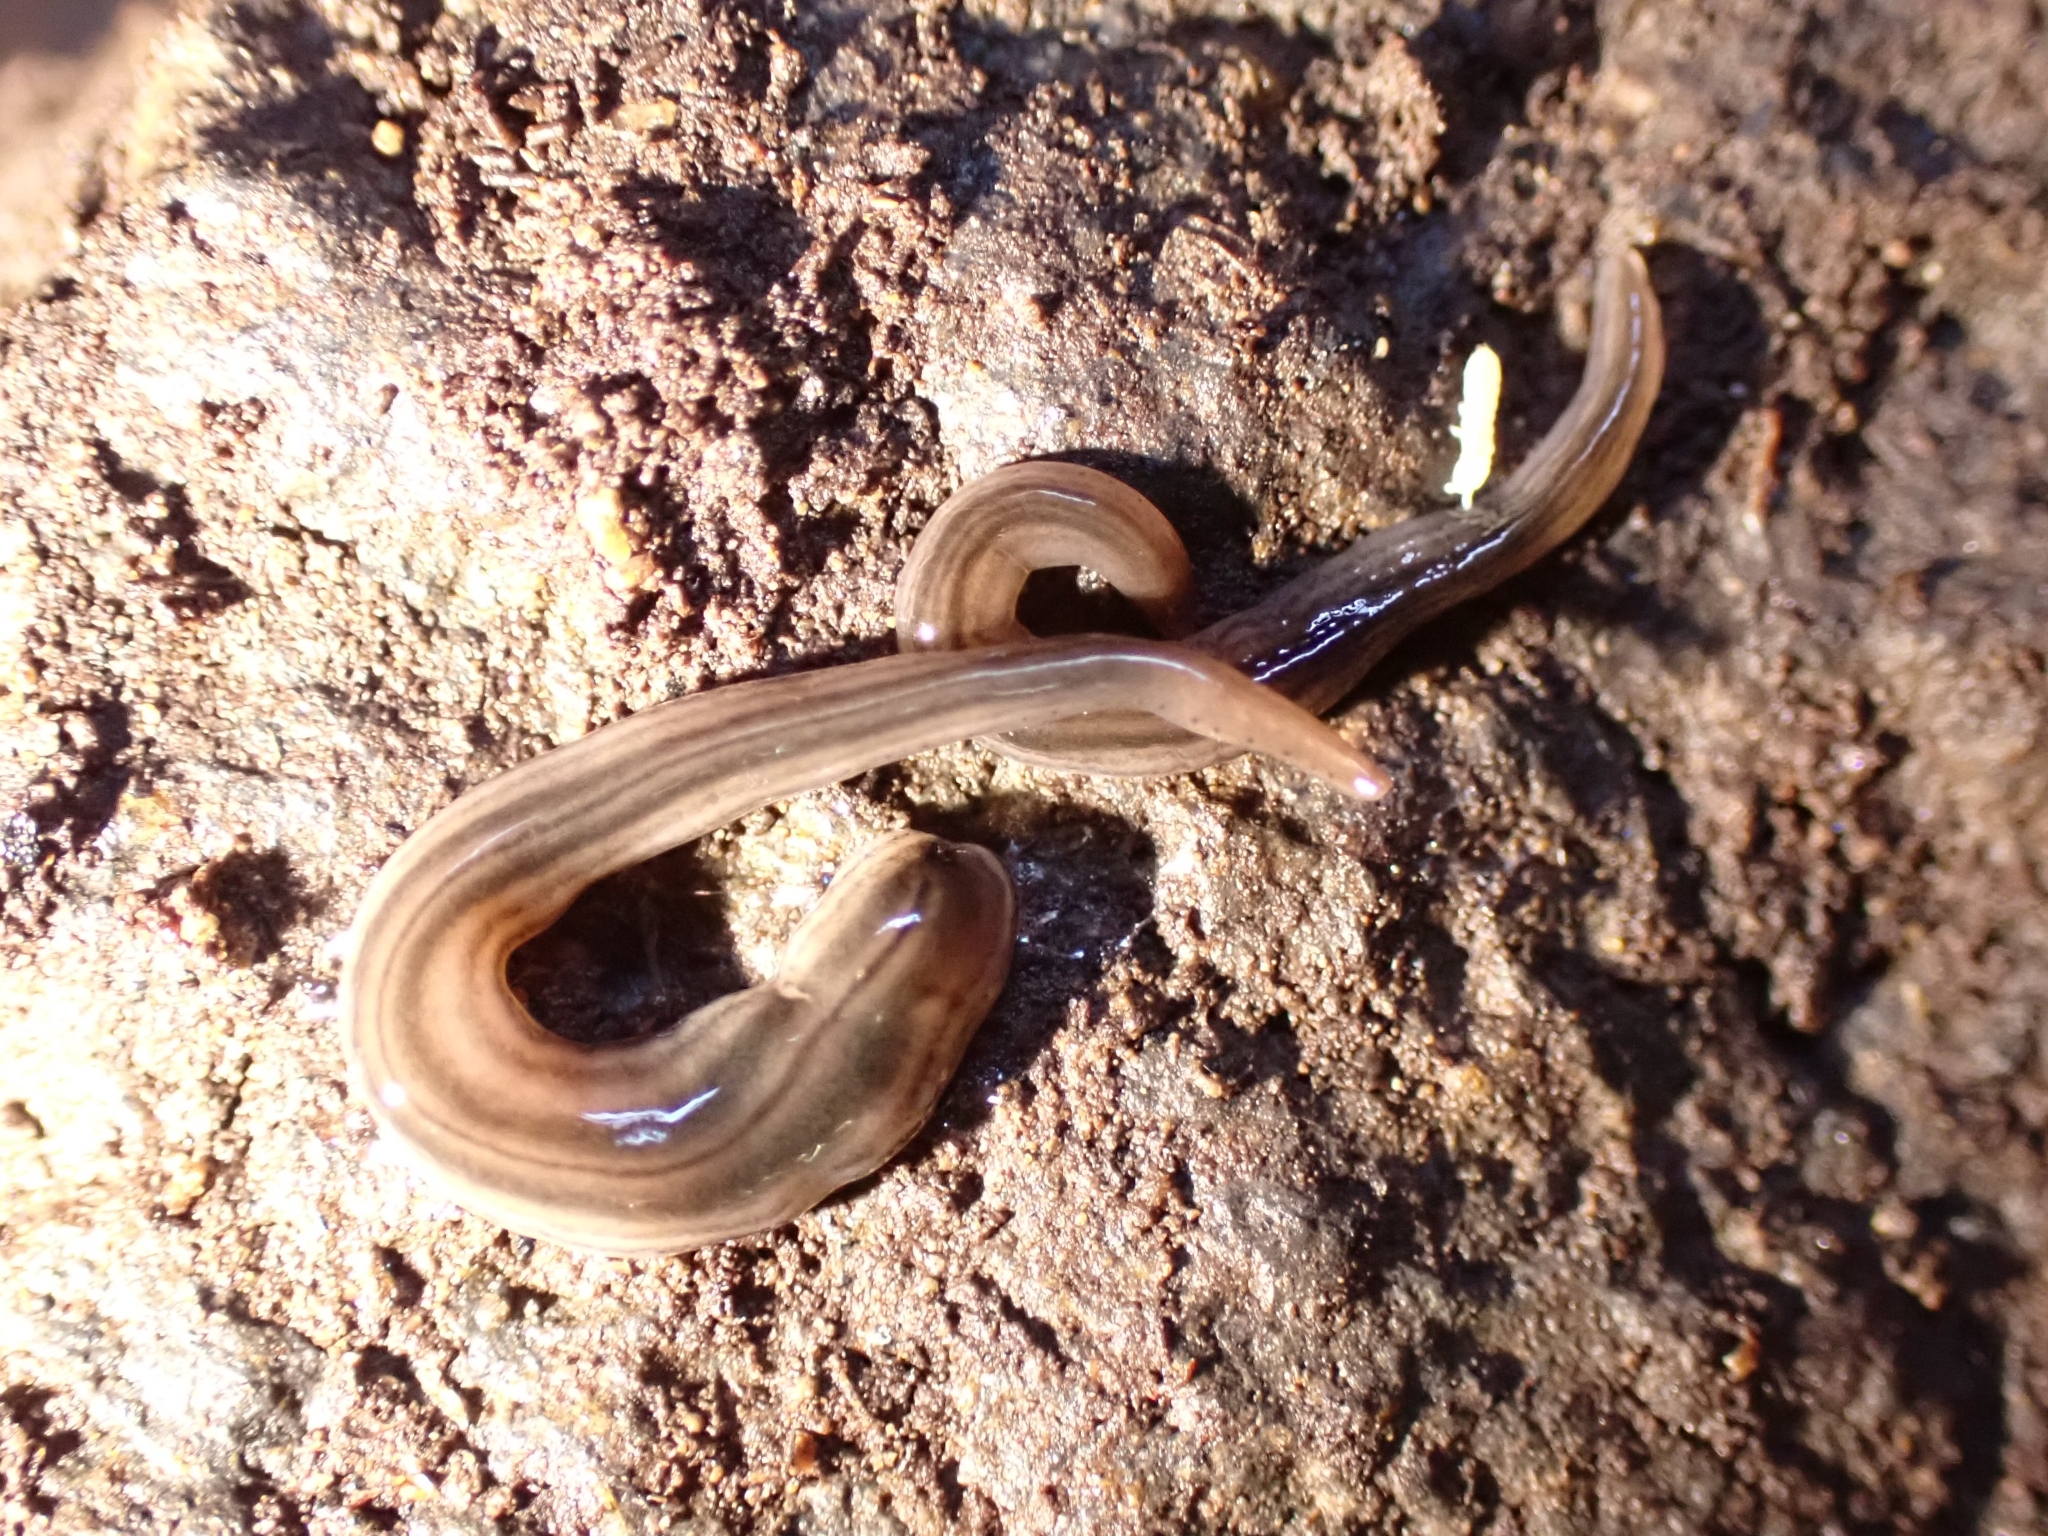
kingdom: Animalia
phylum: Platyhelminthes
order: Tricladida
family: Geoplanidae
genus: Endeavouria
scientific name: Endeavouria septemlineata
